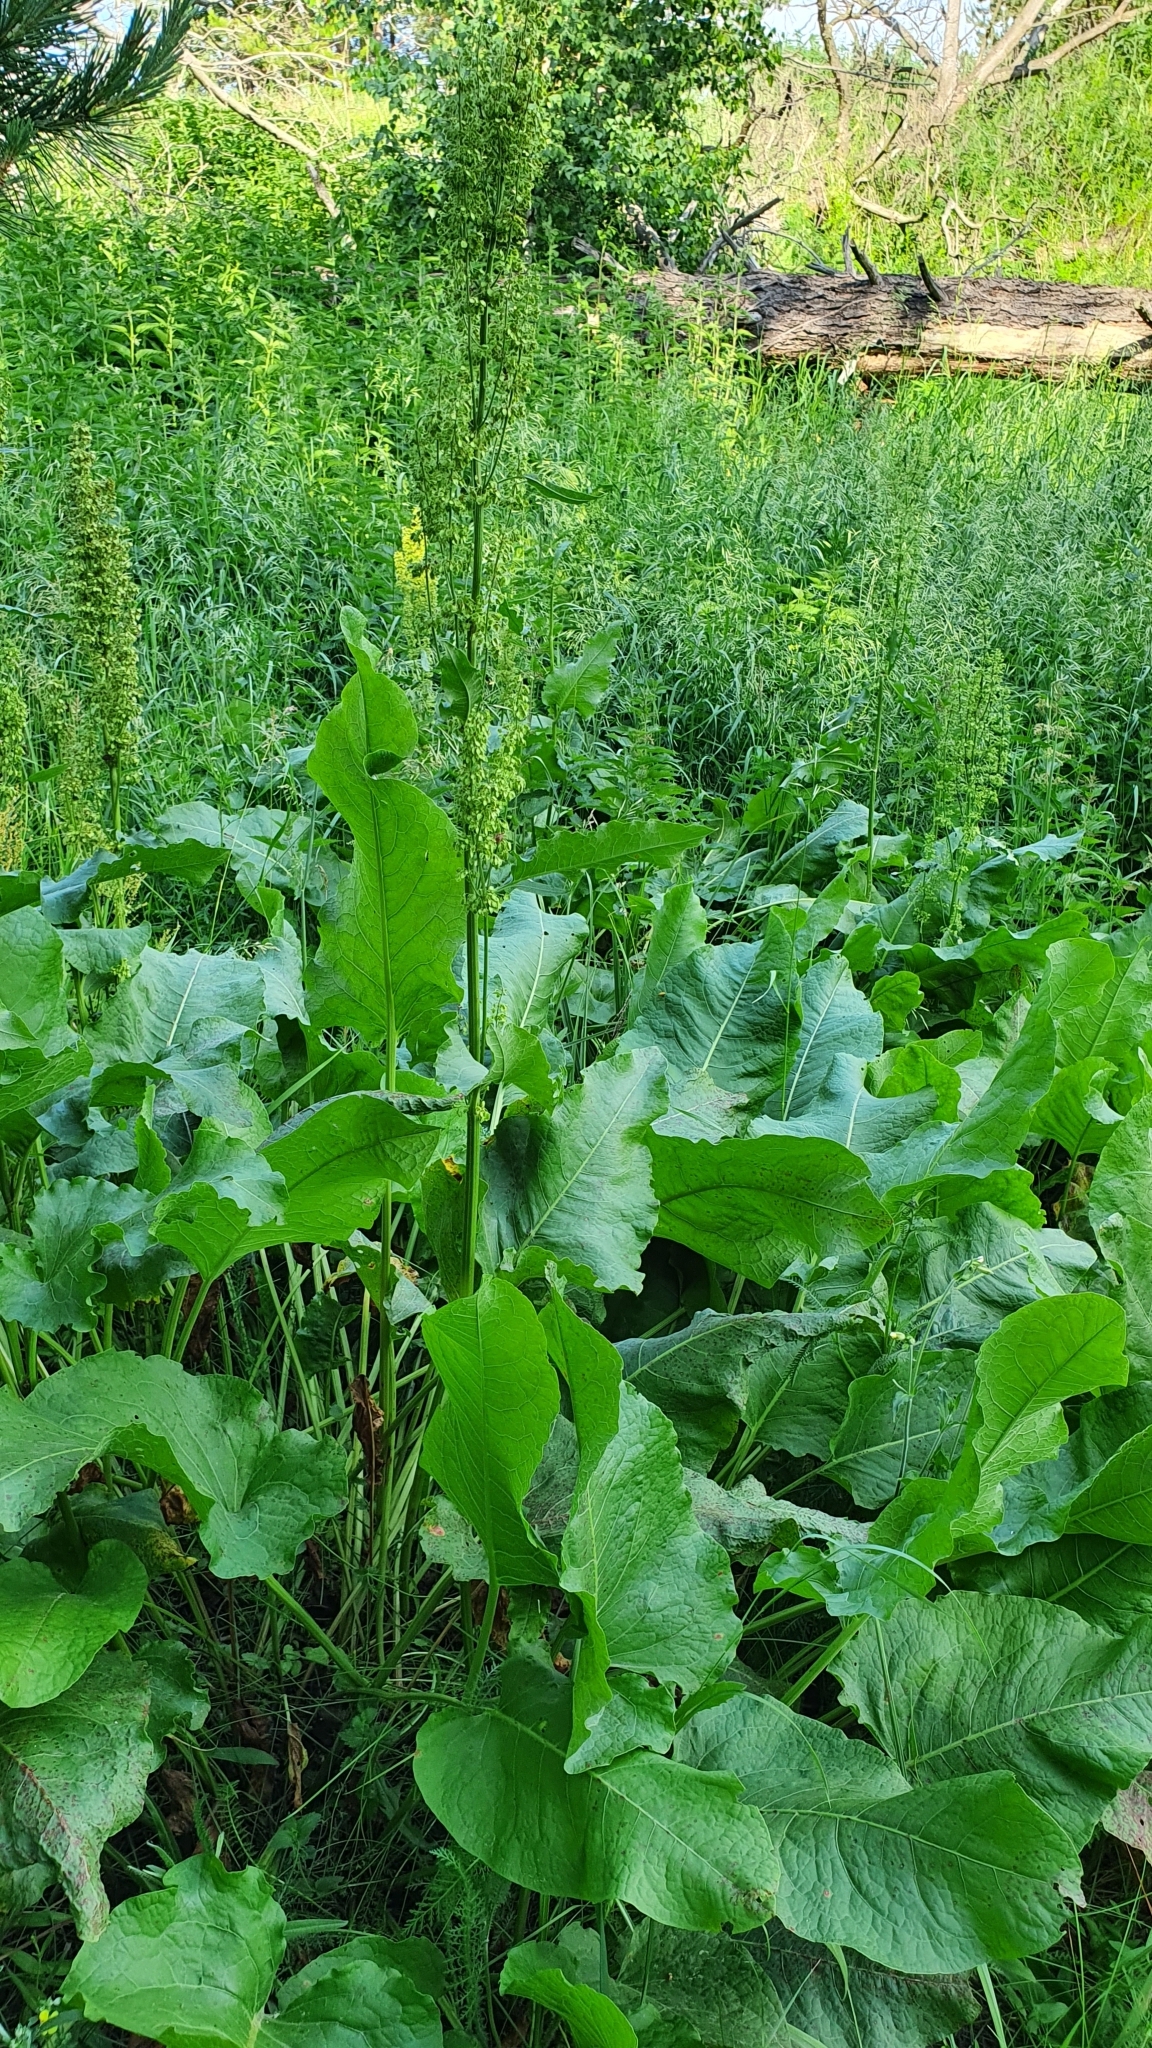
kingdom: Plantae
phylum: Tracheophyta
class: Magnoliopsida
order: Caryophyllales
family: Polygonaceae
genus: Rumex
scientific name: Rumex confertus
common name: Russian dock
